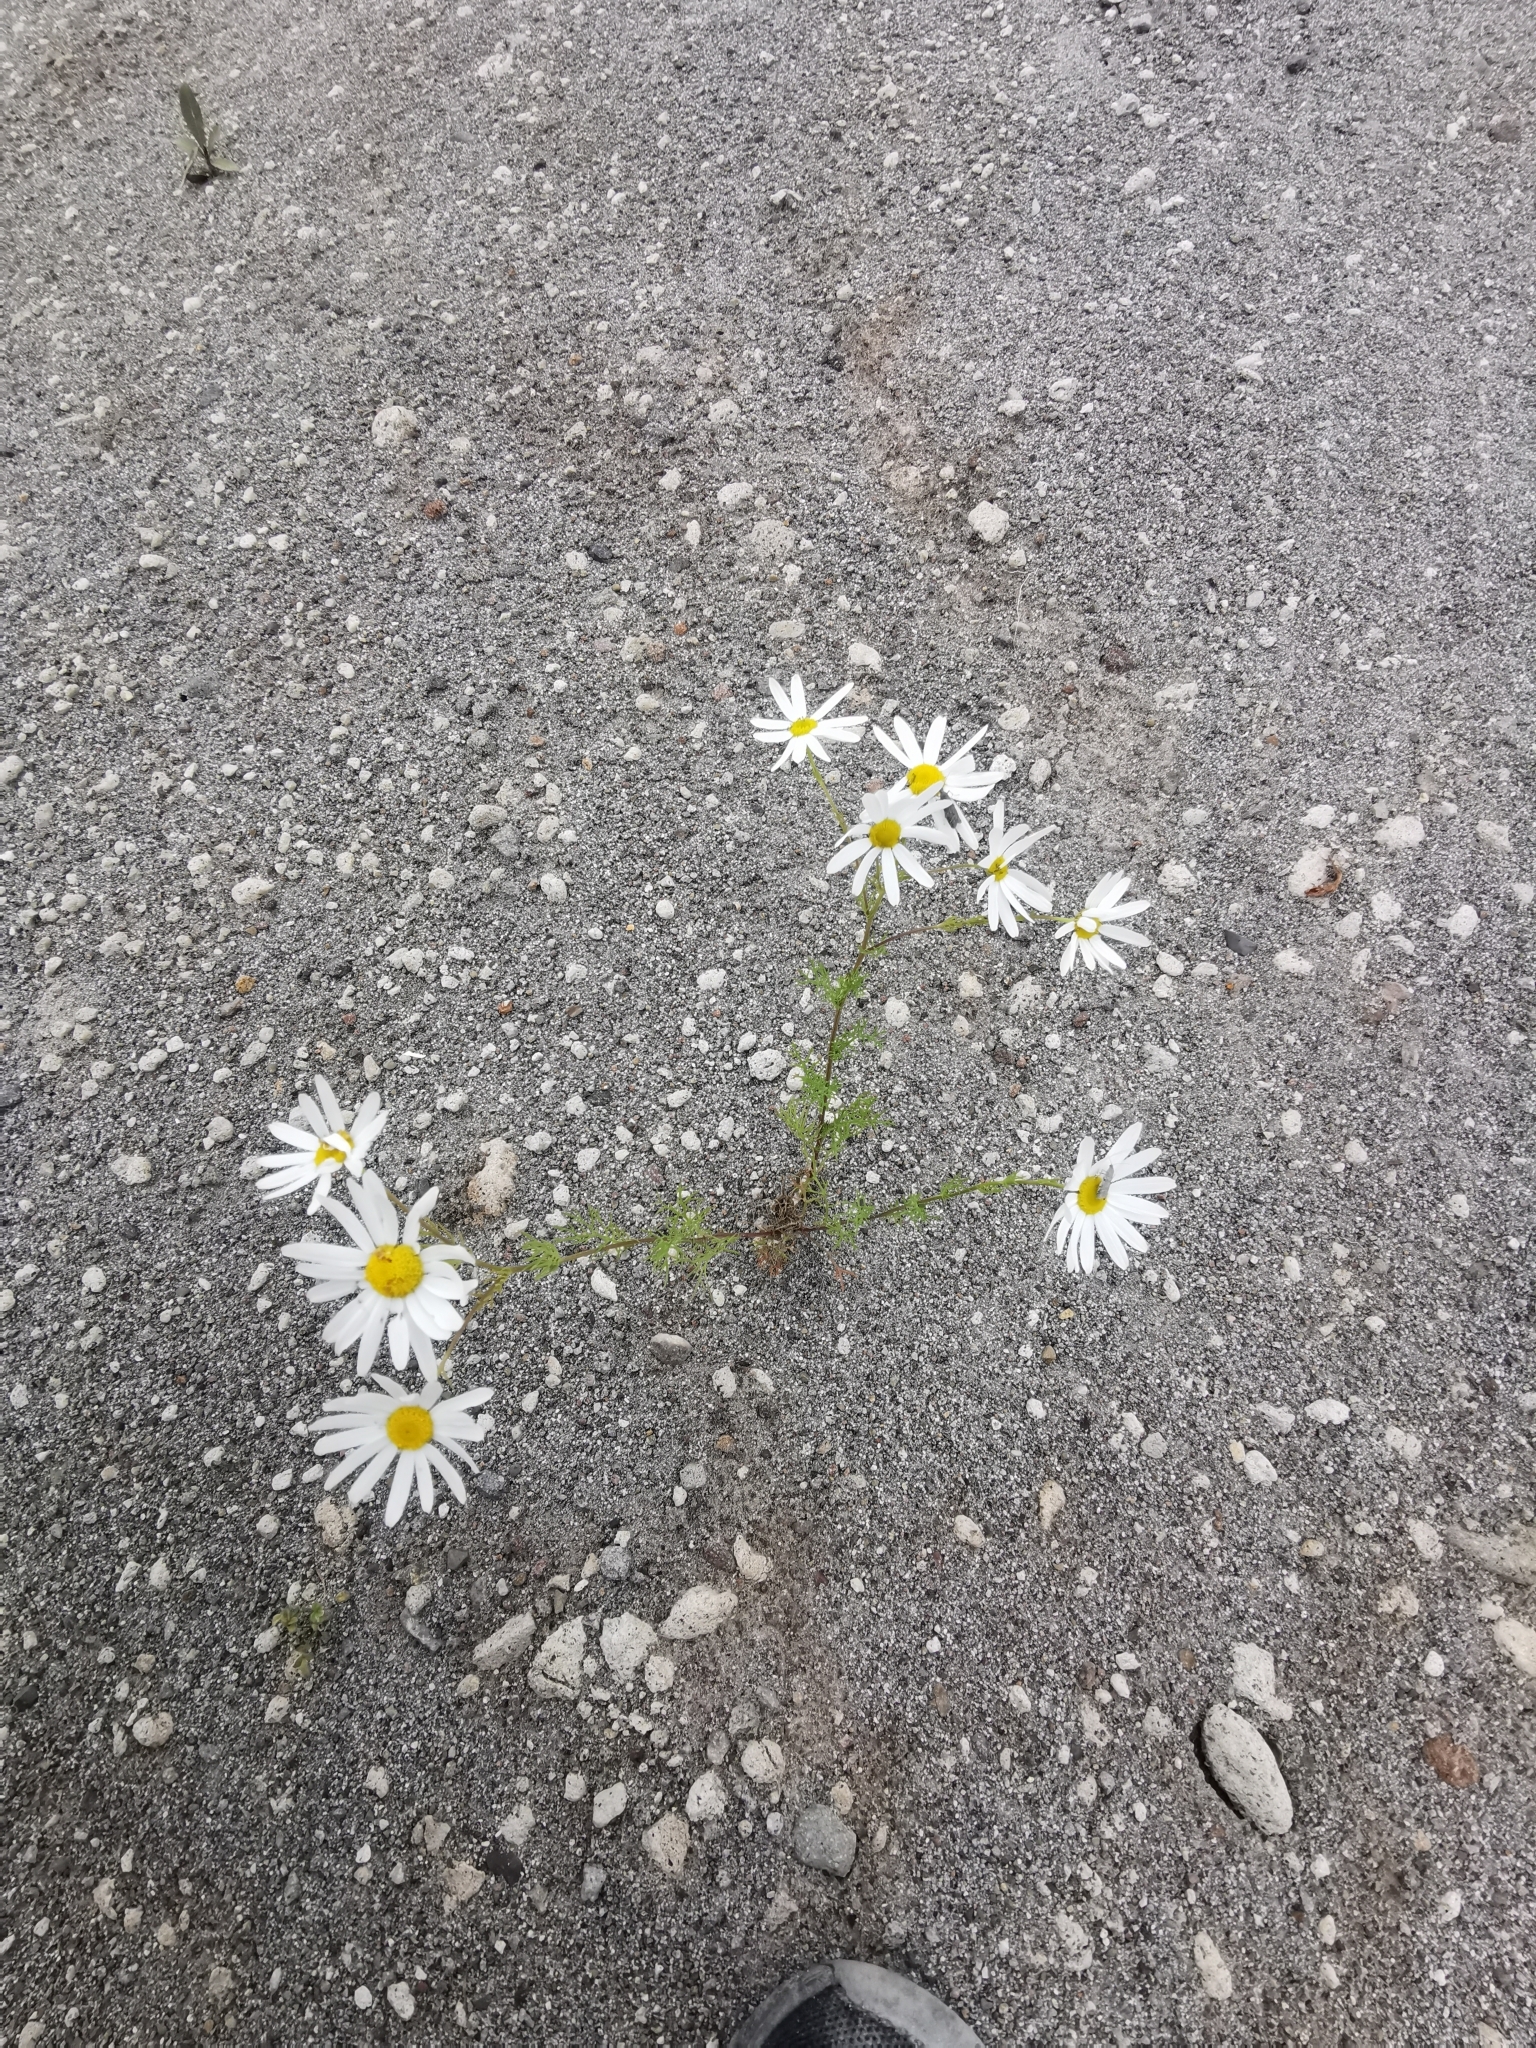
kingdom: Plantae
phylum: Tracheophyta
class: Magnoliopsida
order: Asterales
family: Asteraceae
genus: Tripleurospermum
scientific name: Tripleurospermum inodorum
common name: Scentless mayweed
